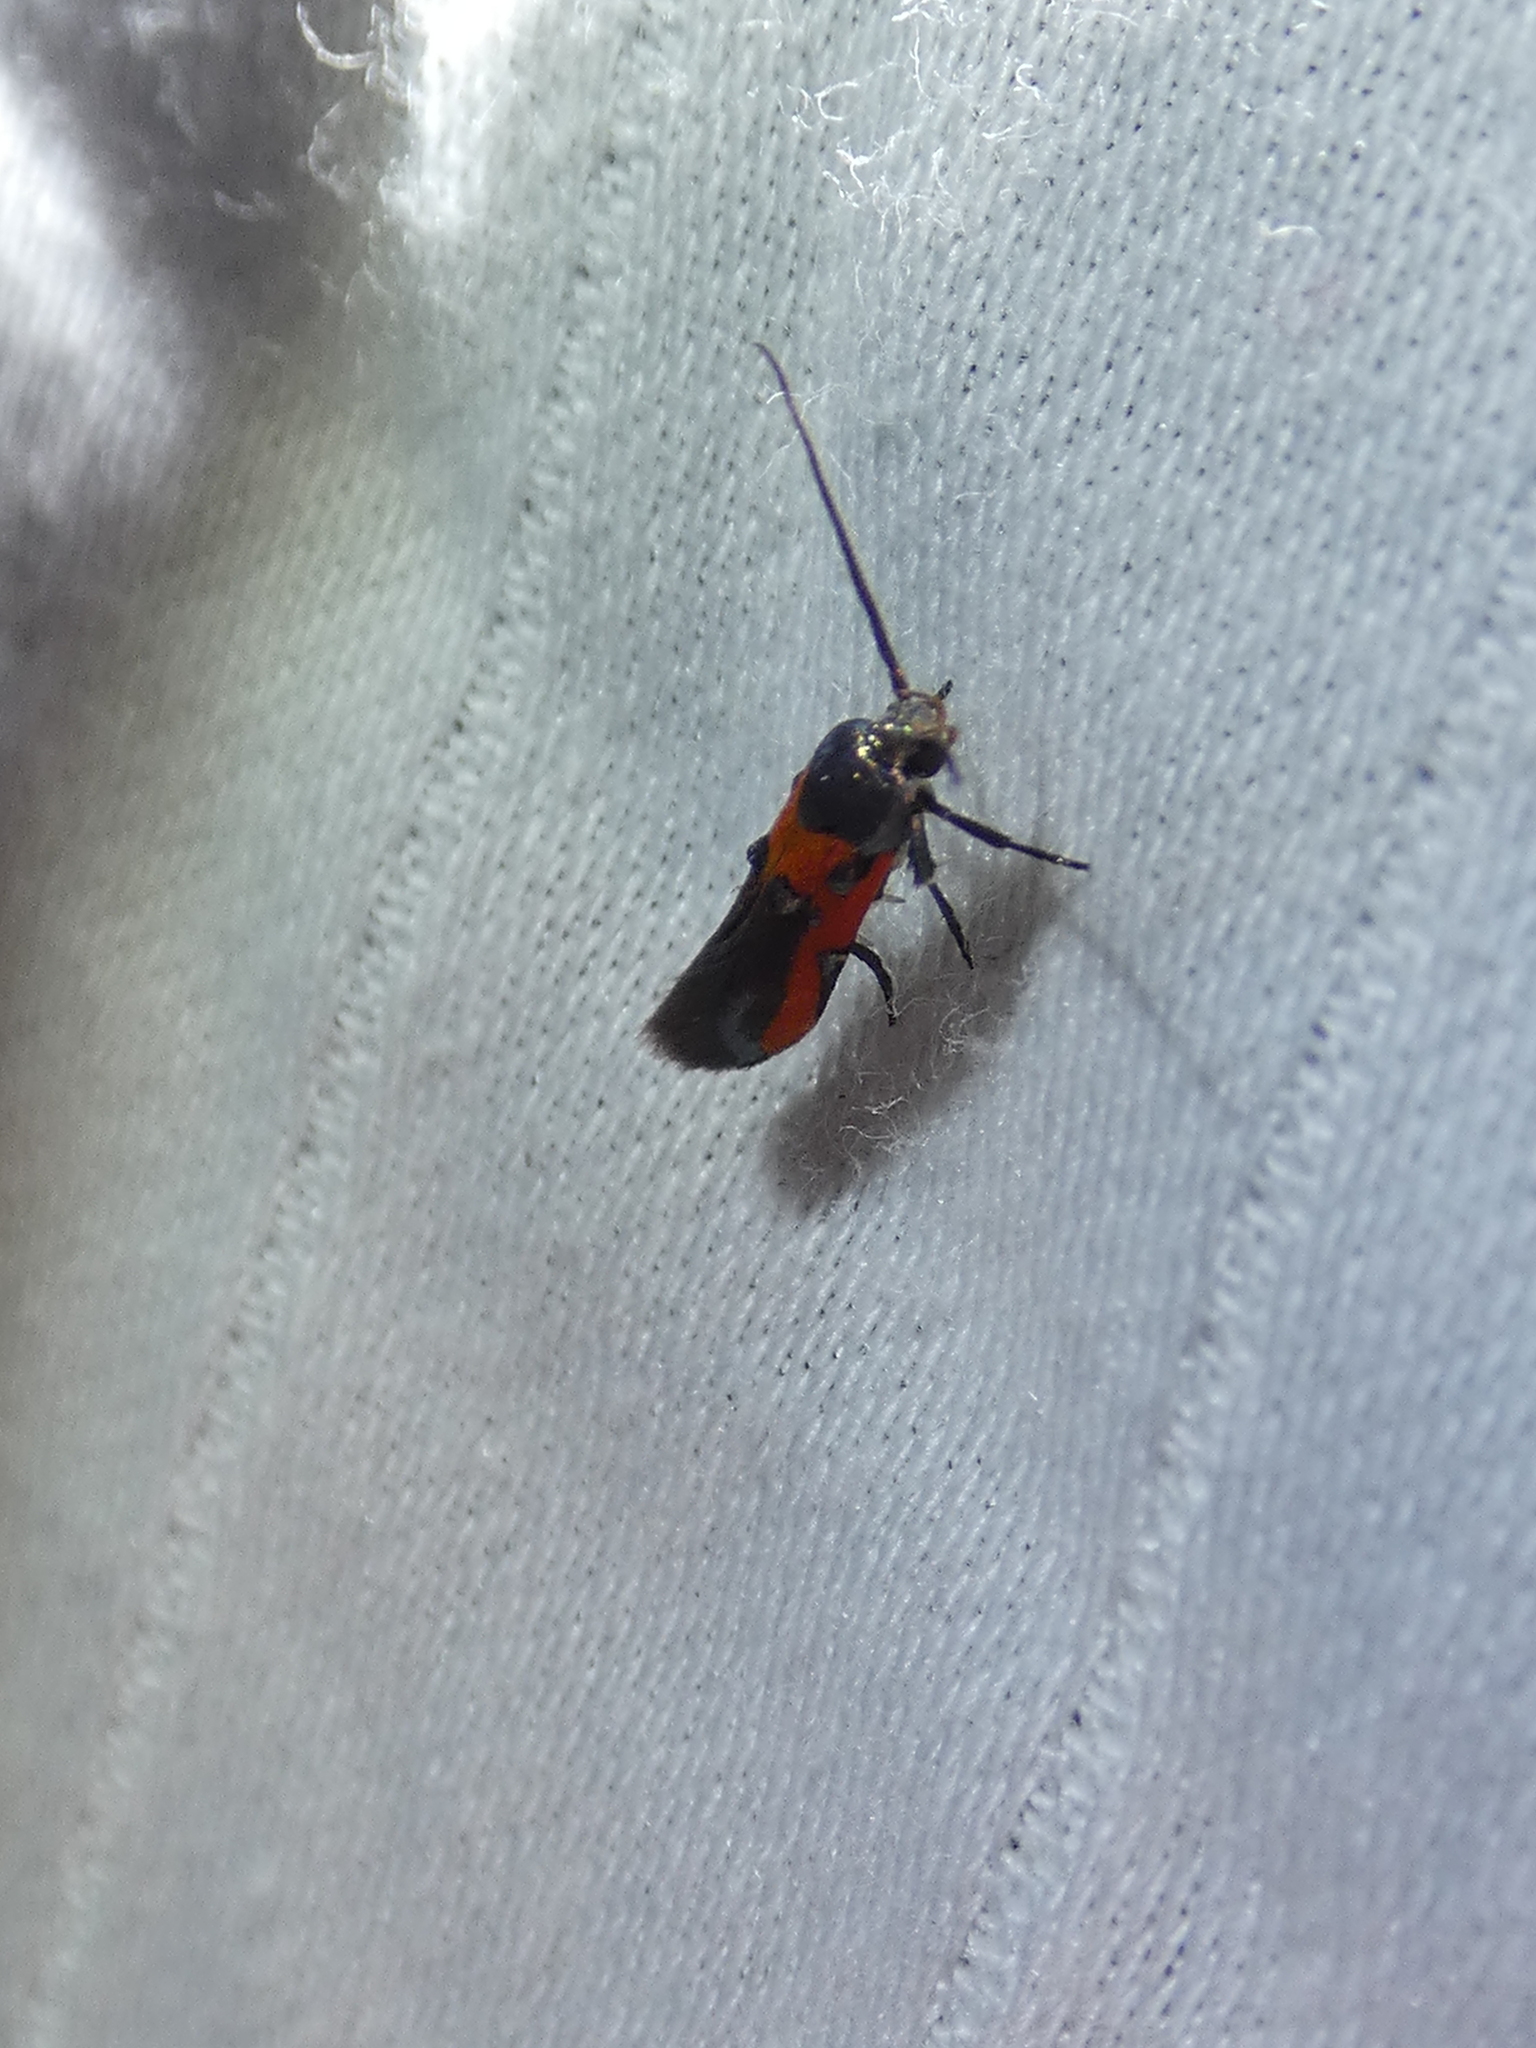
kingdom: Animalia
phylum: Arthropoda
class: Insecta
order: Lepidoptera
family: Cosmopterigidae
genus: Euclemensia
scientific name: Euclemensia bassettella
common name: Kermes scale moth
